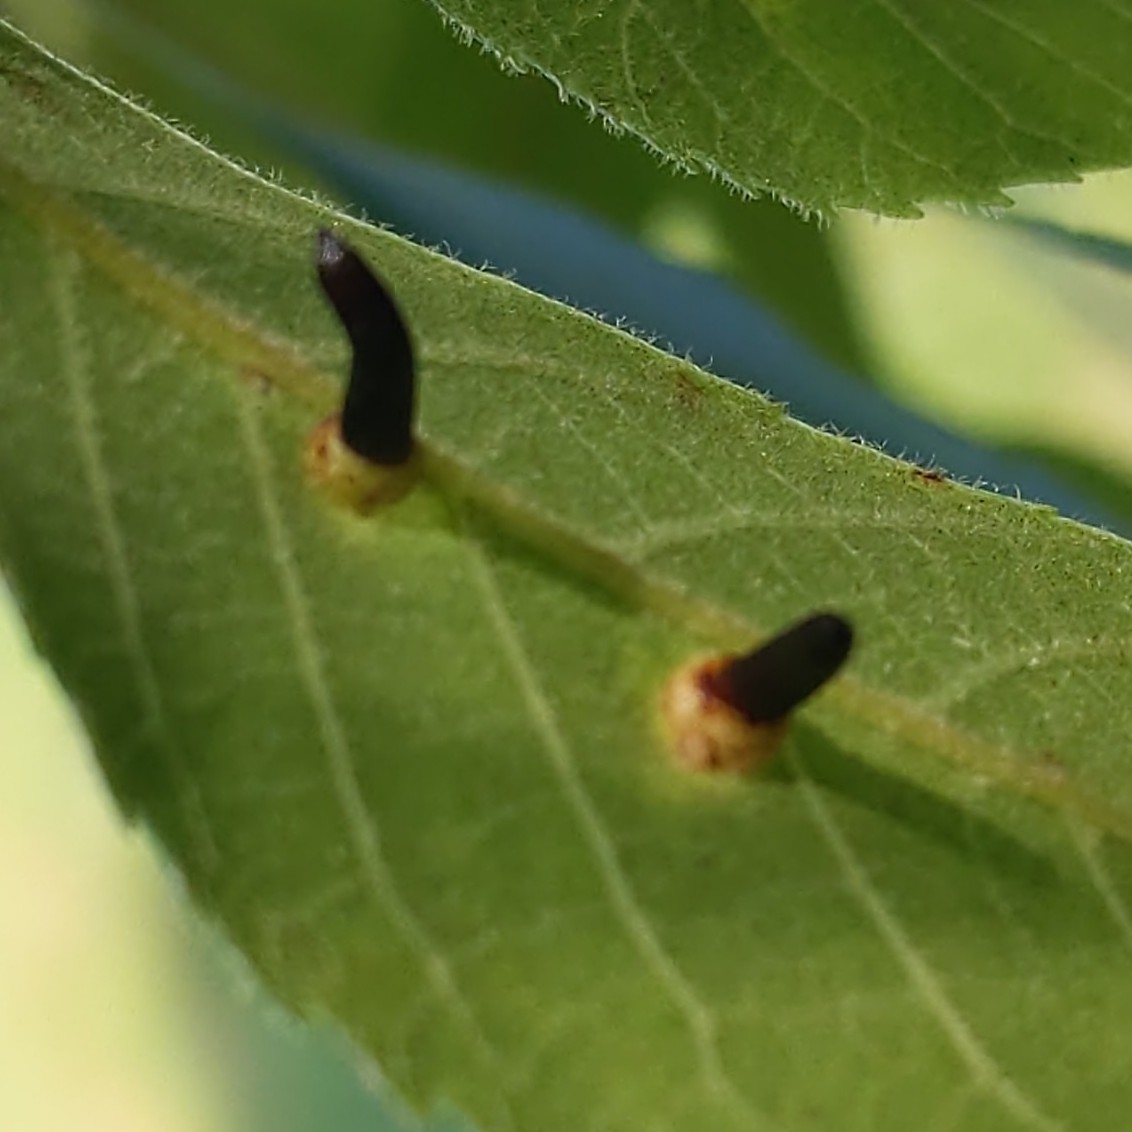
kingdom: Animalia
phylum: Arthropoda
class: Insecta
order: Diptera
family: Cecidomyiidae
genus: Caryomyia
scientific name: Caryomyia subulata
